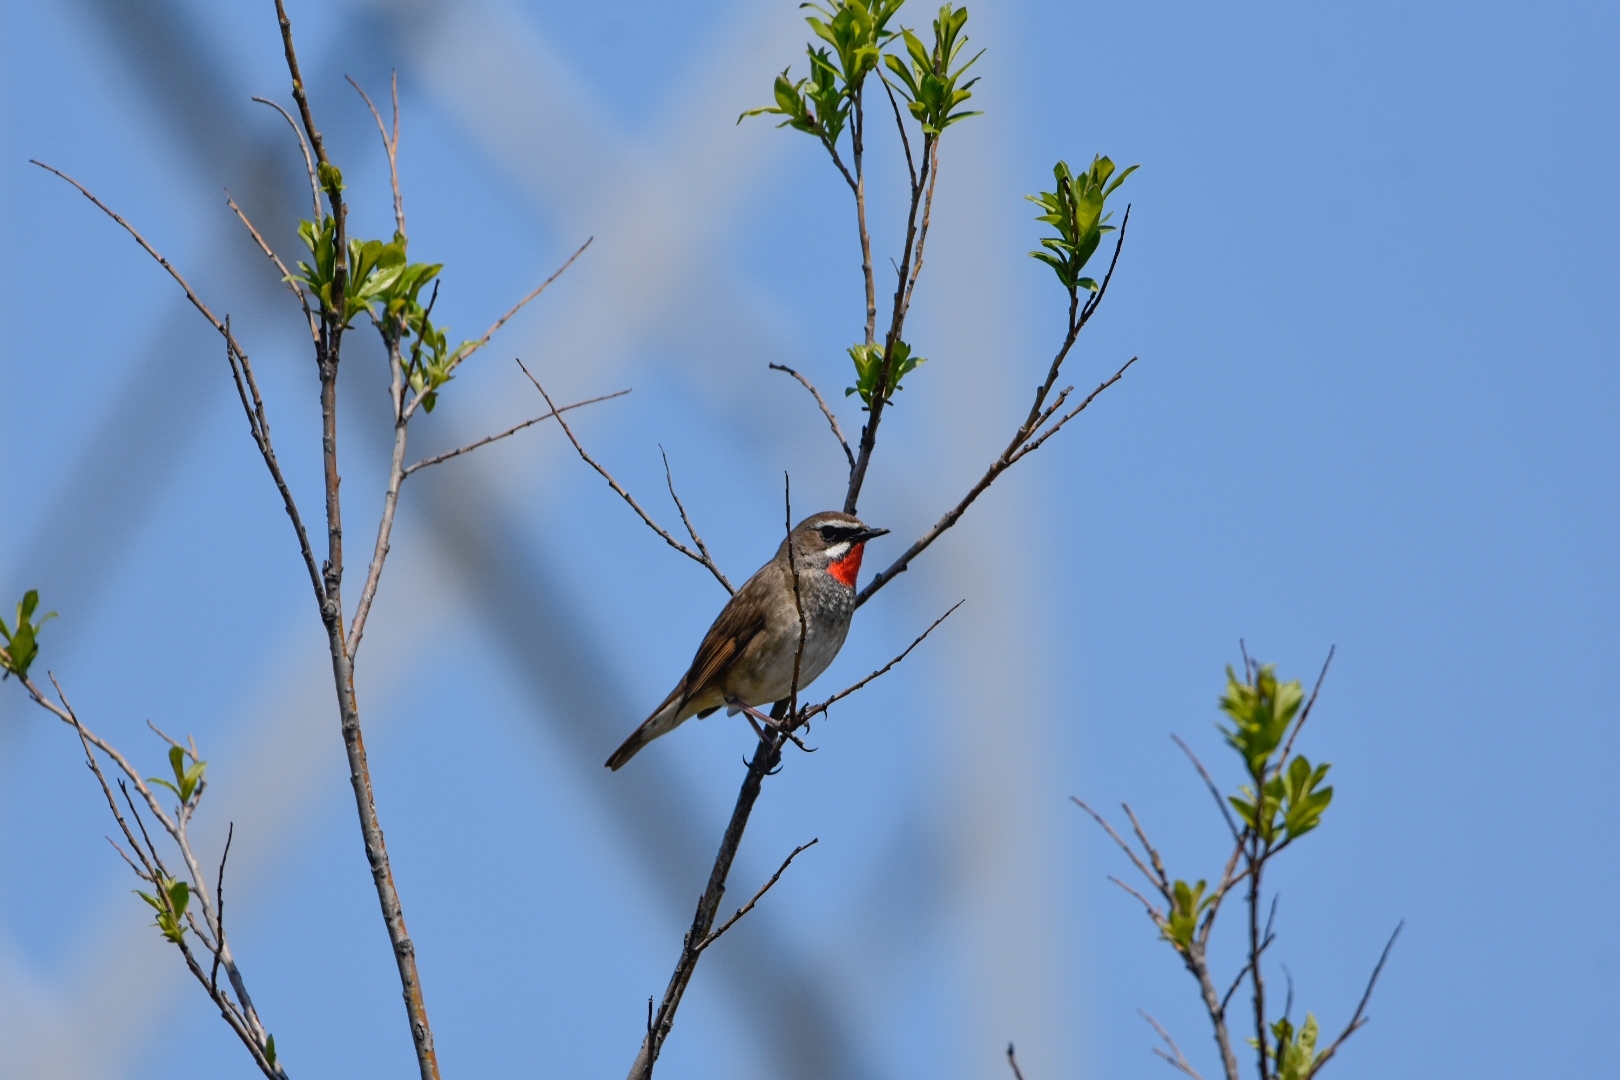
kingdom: Animalia
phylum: Chordata
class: Aves
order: Passeriformes
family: Muscicapidae
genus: Luscinia
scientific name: Luscinia calliope
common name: Siberian rubythroat
